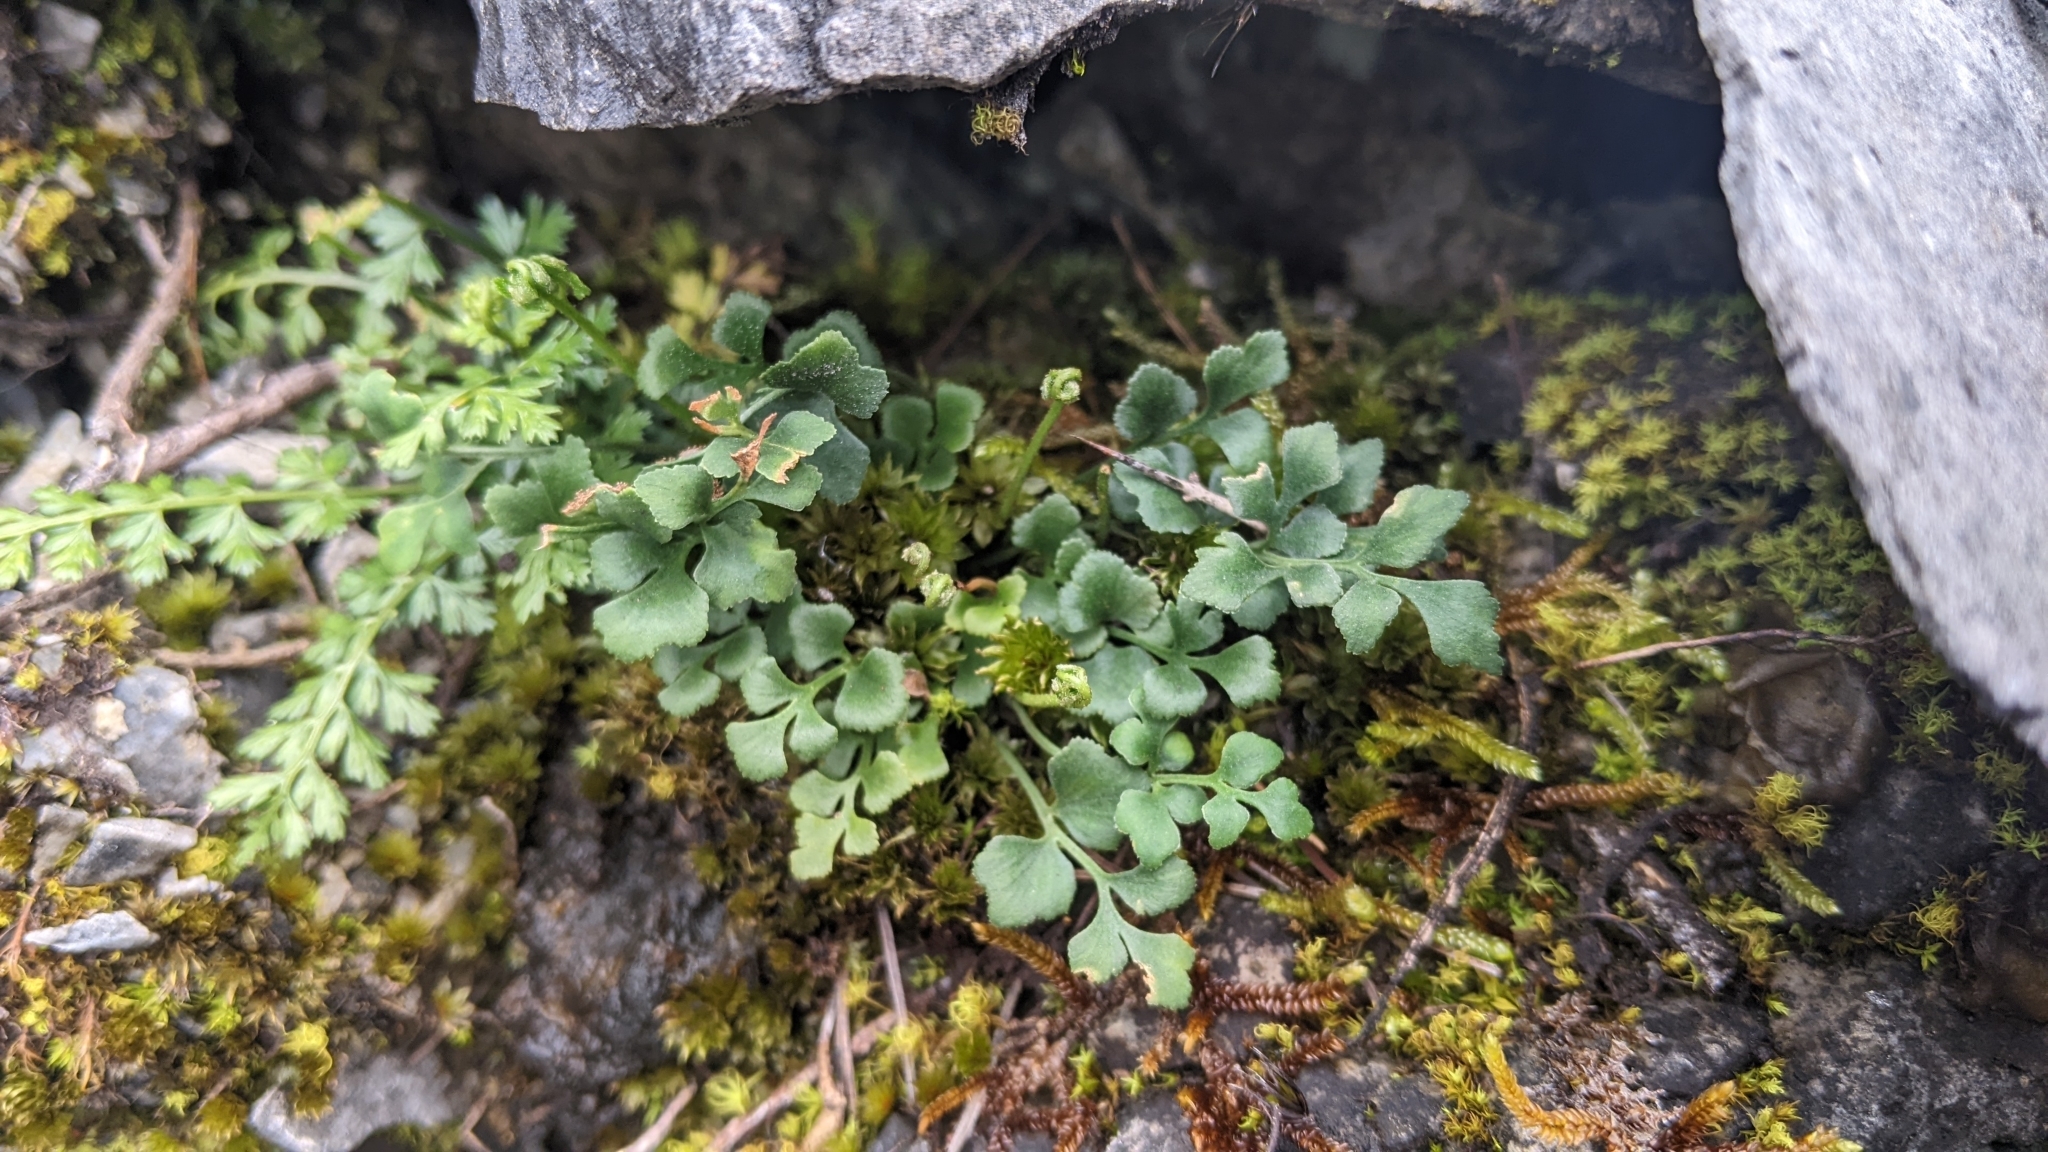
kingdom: Plantae
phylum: Tracheophyta
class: Polypodiopsida
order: Polypodiales
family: Aspleniaceae
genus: Asplenium
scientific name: Asplenium ruta-muraria
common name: Wall-rue
